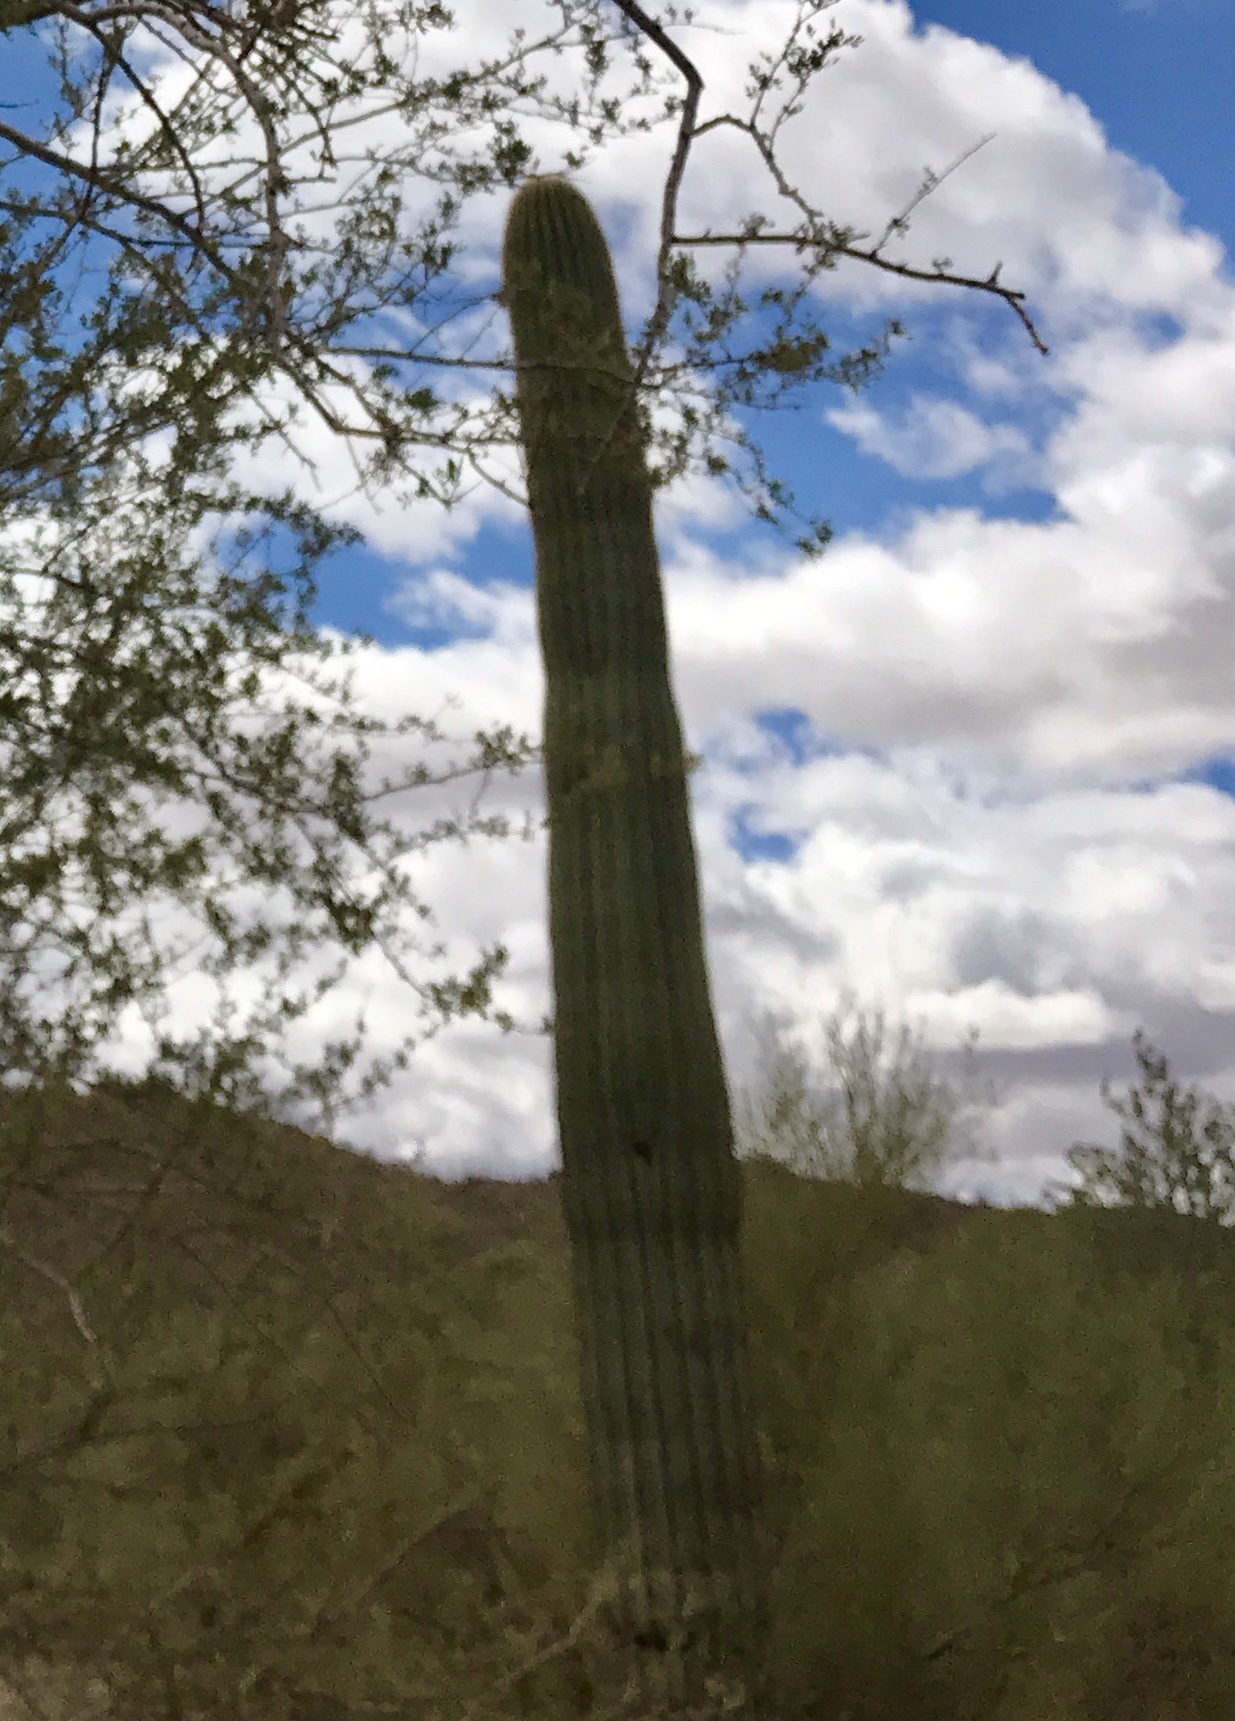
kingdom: Plantae
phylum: Tracheophyta
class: Magnoliopsida
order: Caryophyllales
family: Cactaceae
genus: Carnegiea
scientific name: Carnegiea gigantea
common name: Saguaro
